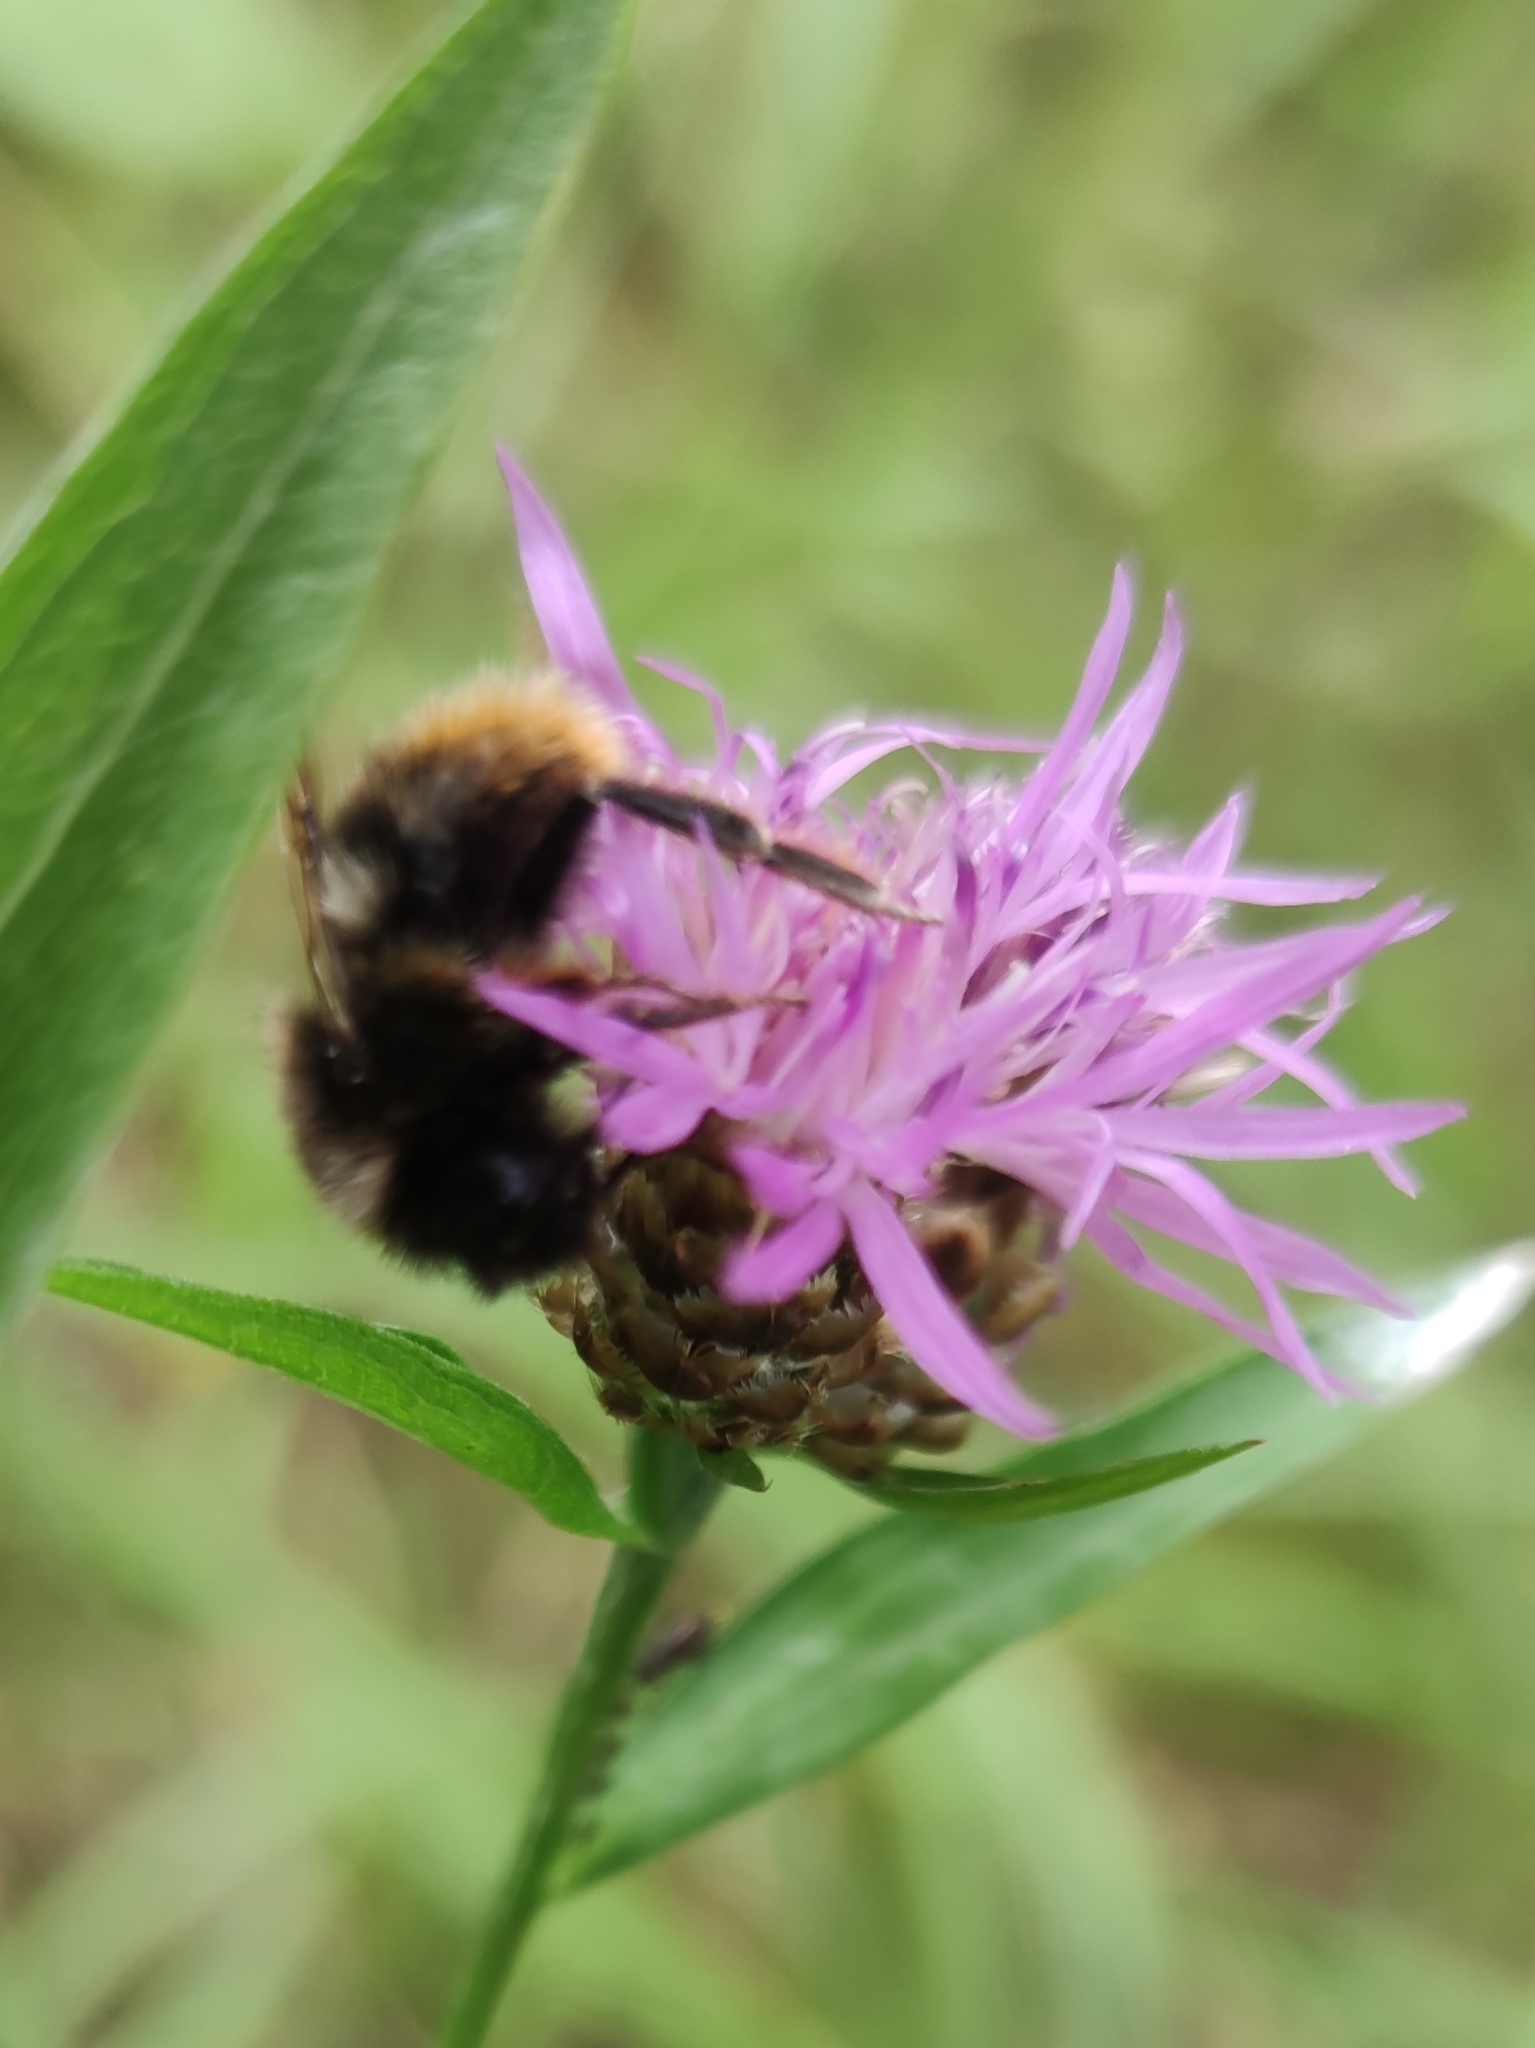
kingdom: Animalia
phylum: Arthropoda
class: Insecta
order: Hymenoptera
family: Apidae
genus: Bombus
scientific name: Bombus rupestris
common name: Hill cuckoo-bee
